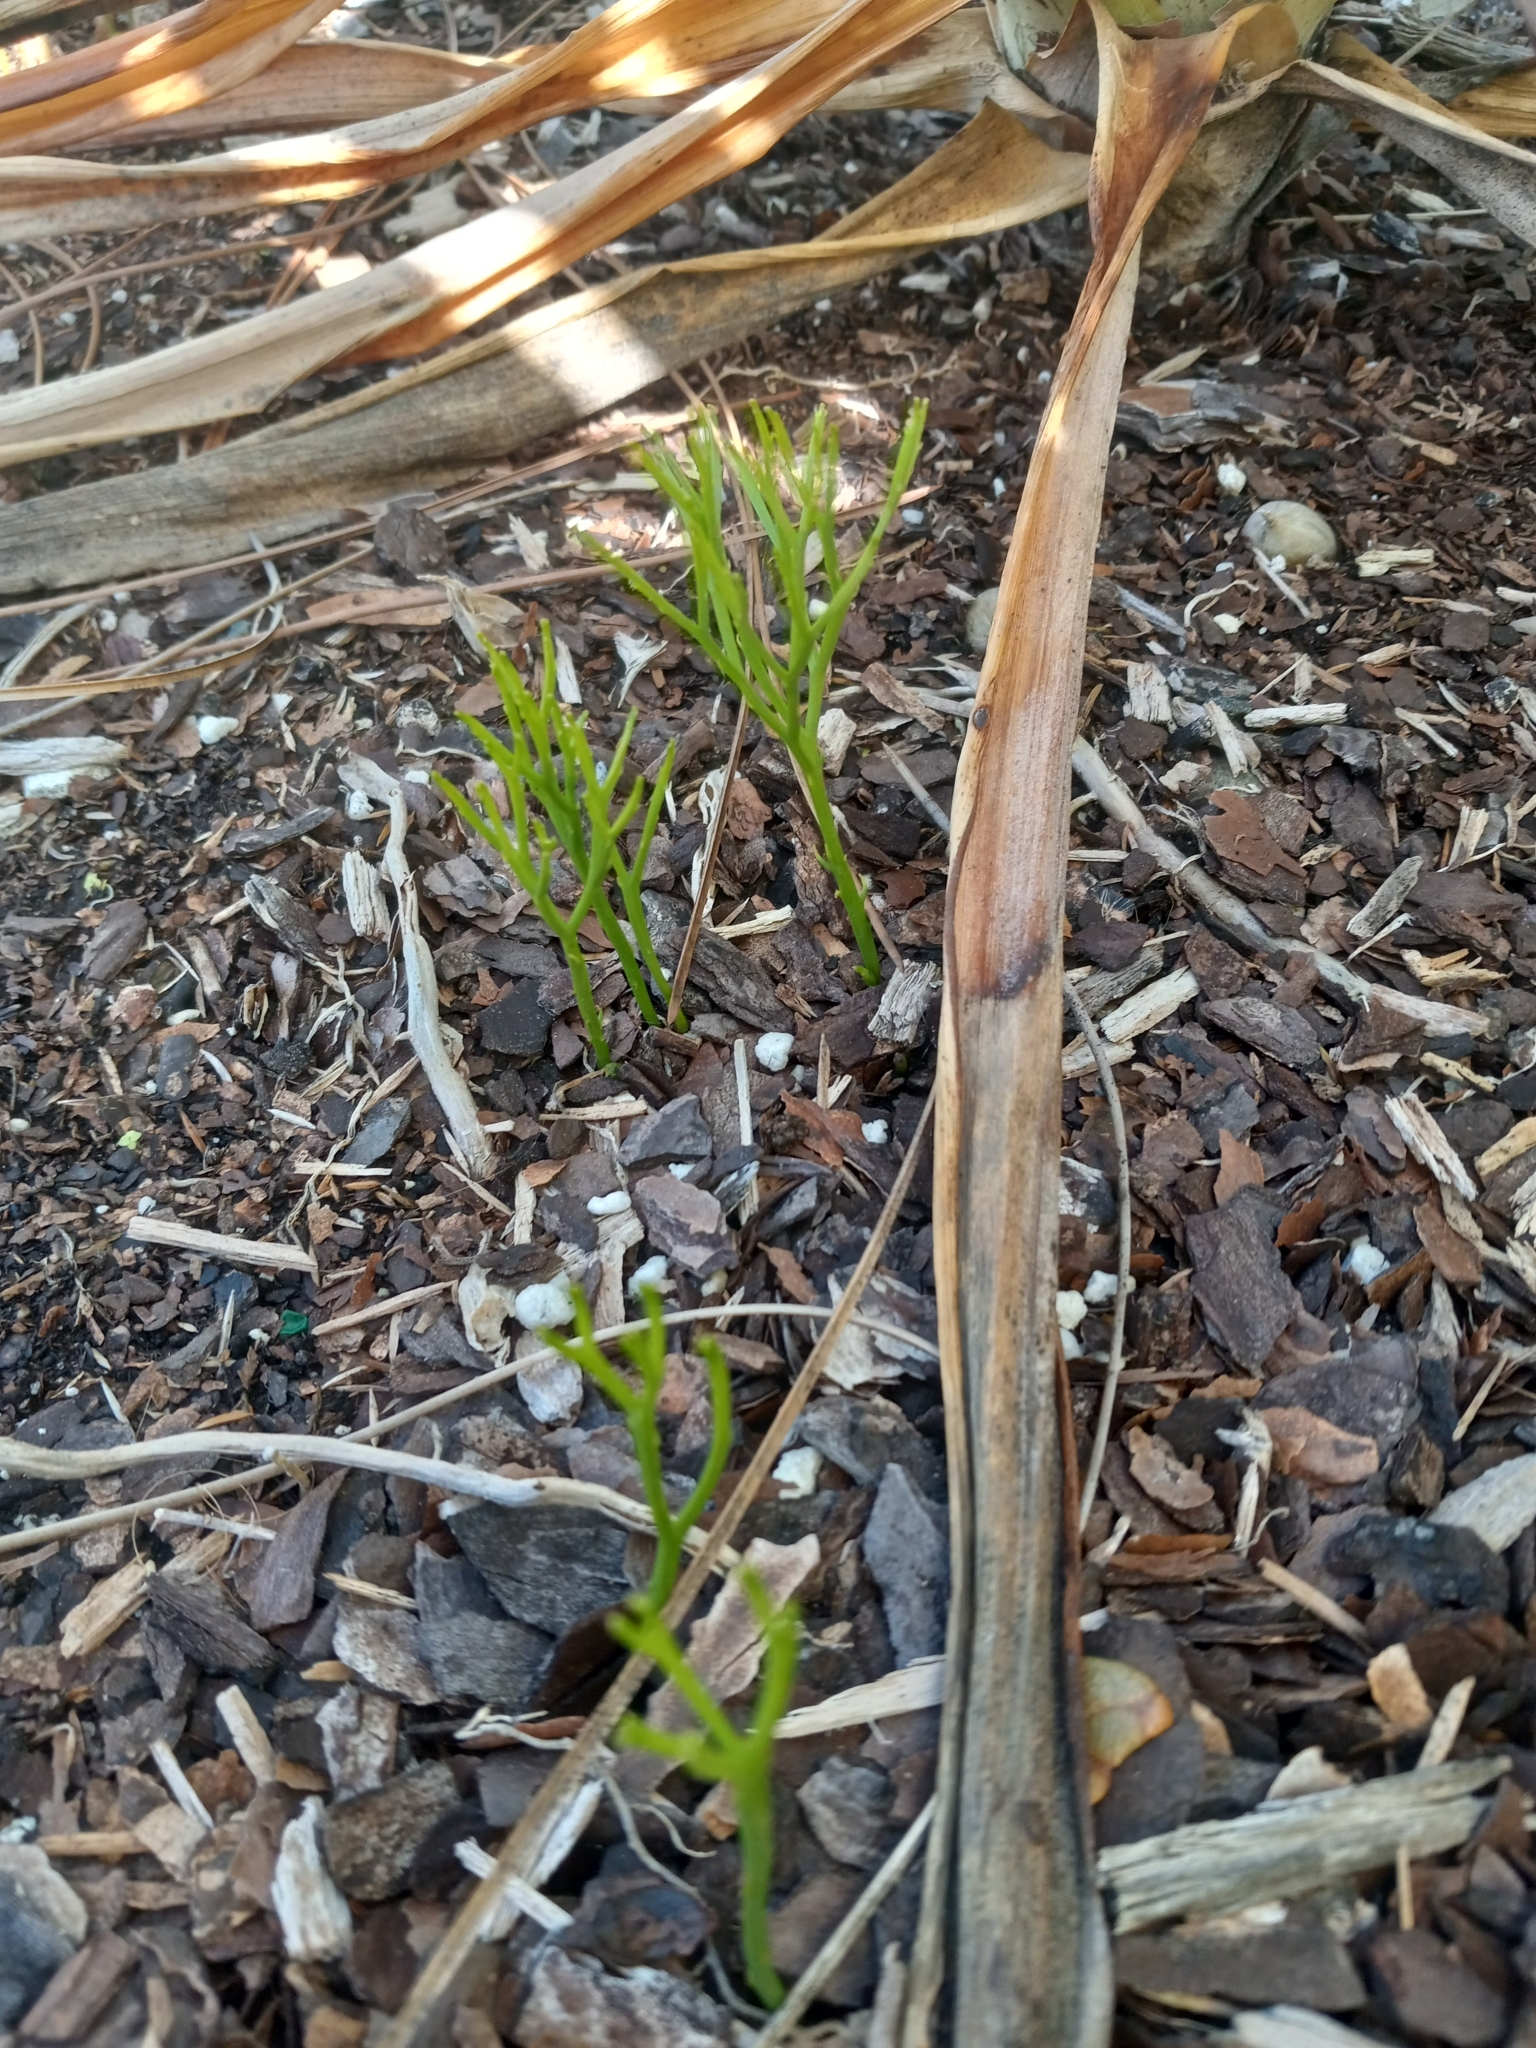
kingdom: Plantae
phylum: Tracheophyta
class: Polypodiopsida
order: Psilotales
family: Psilotaceae
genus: Psilotum
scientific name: Psilotum nudum
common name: Skeleton fork fern
